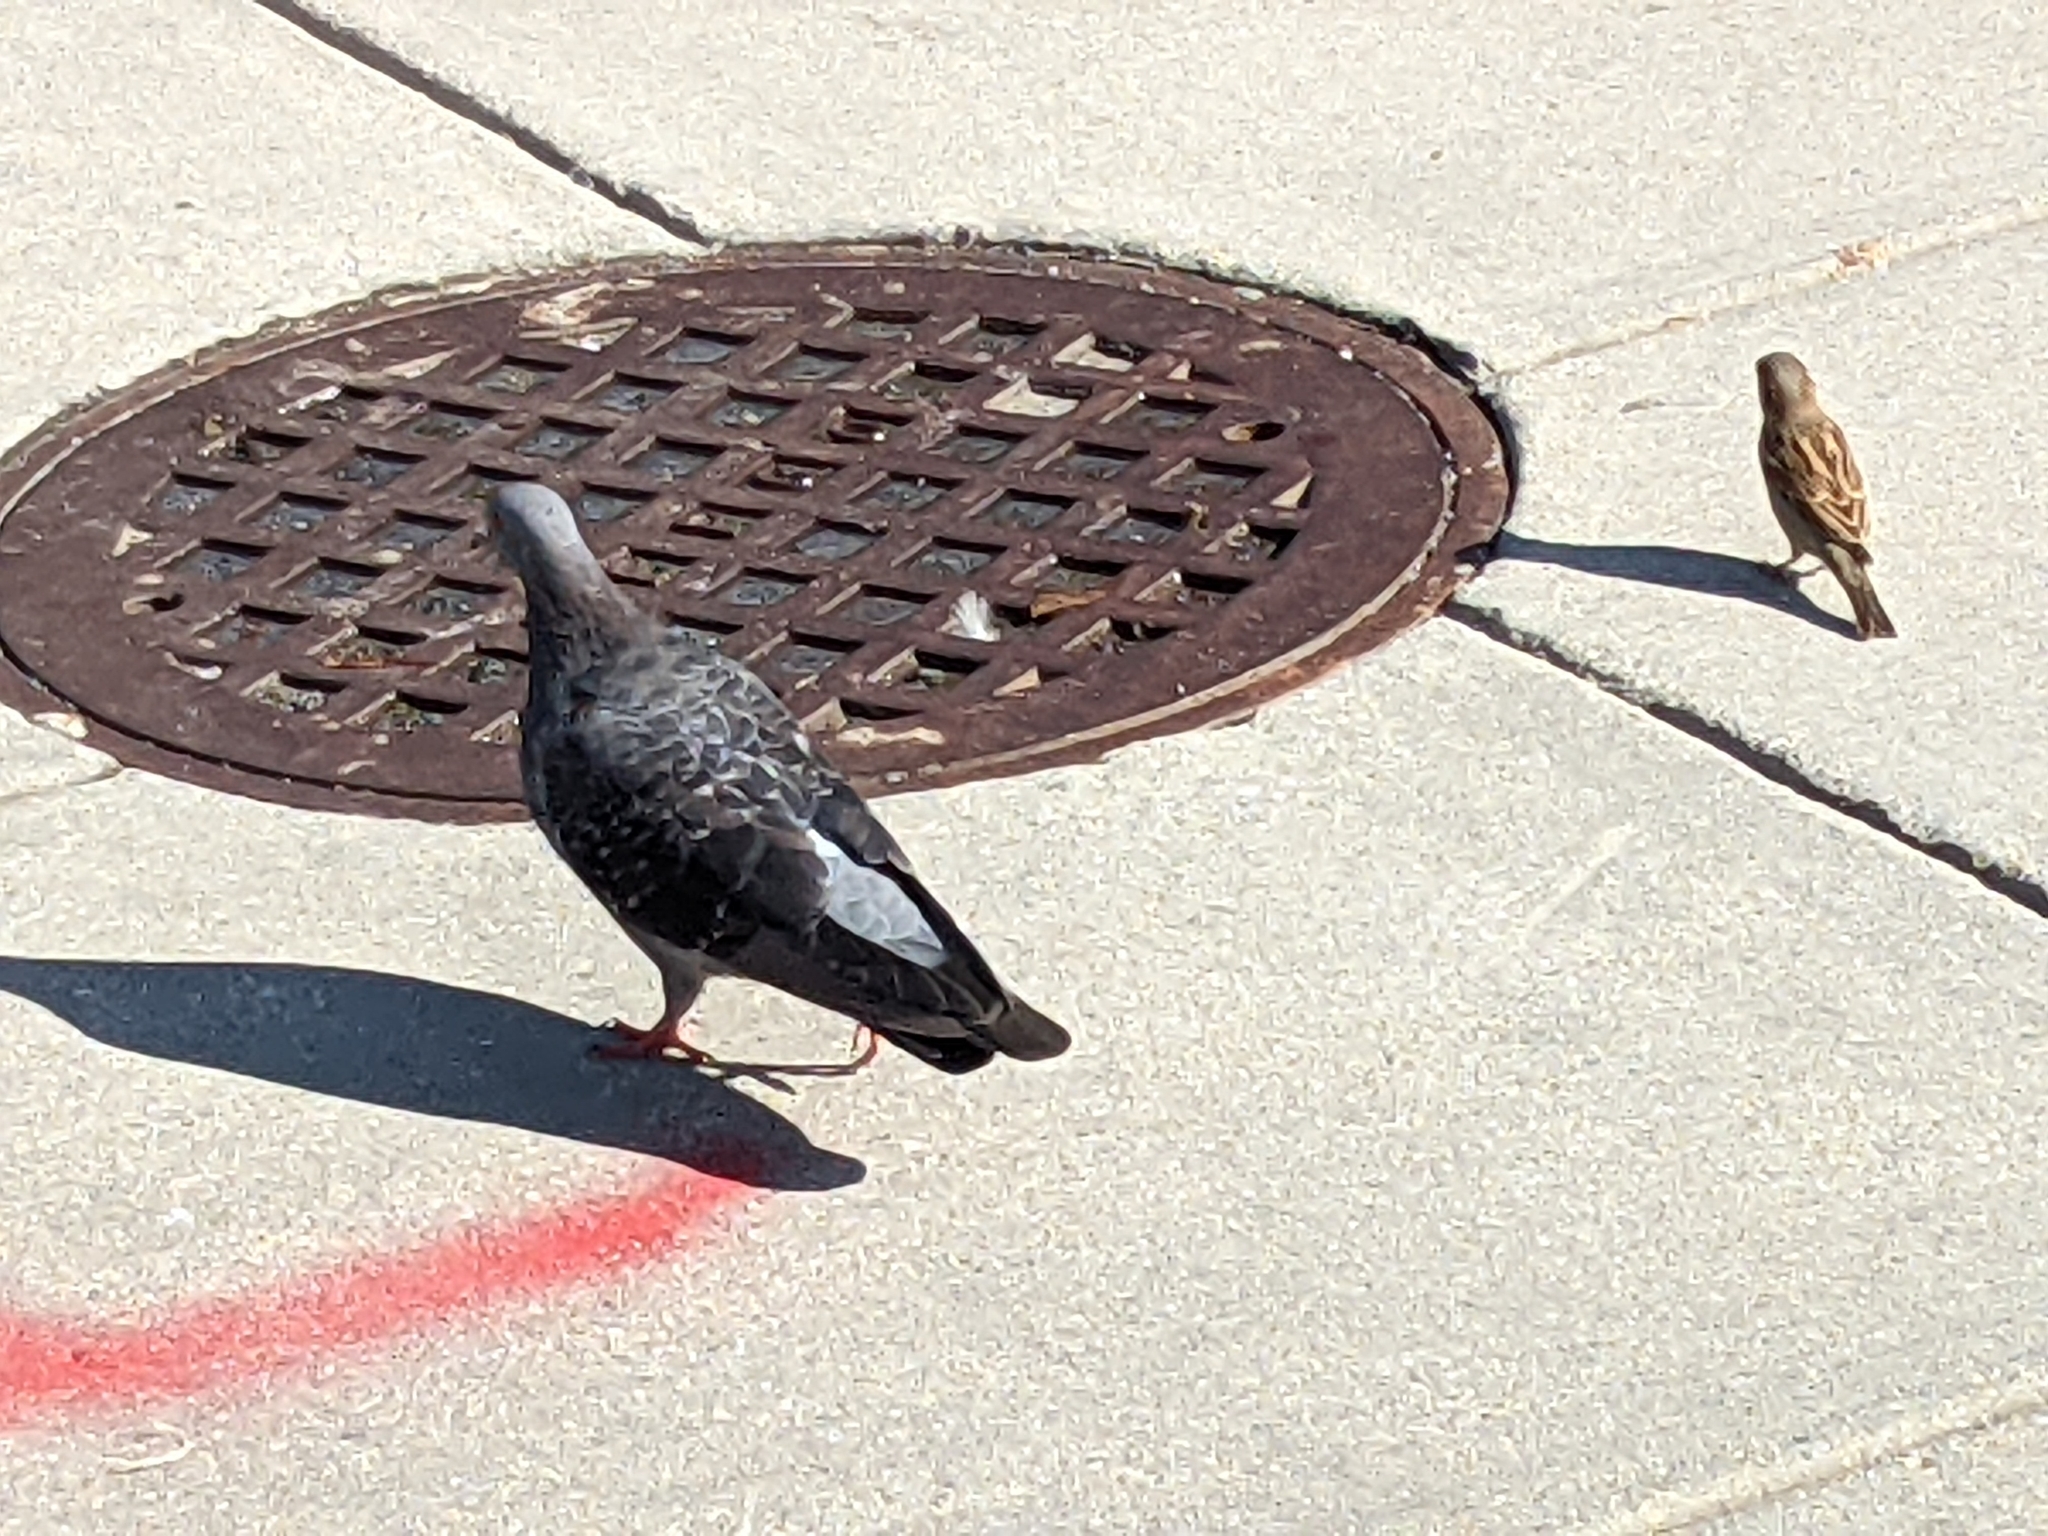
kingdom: Animalia
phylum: Chordata
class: Aves
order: Columbiformes
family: Columbidae
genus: Columba
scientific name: Columba livia
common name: Rock pigeon
